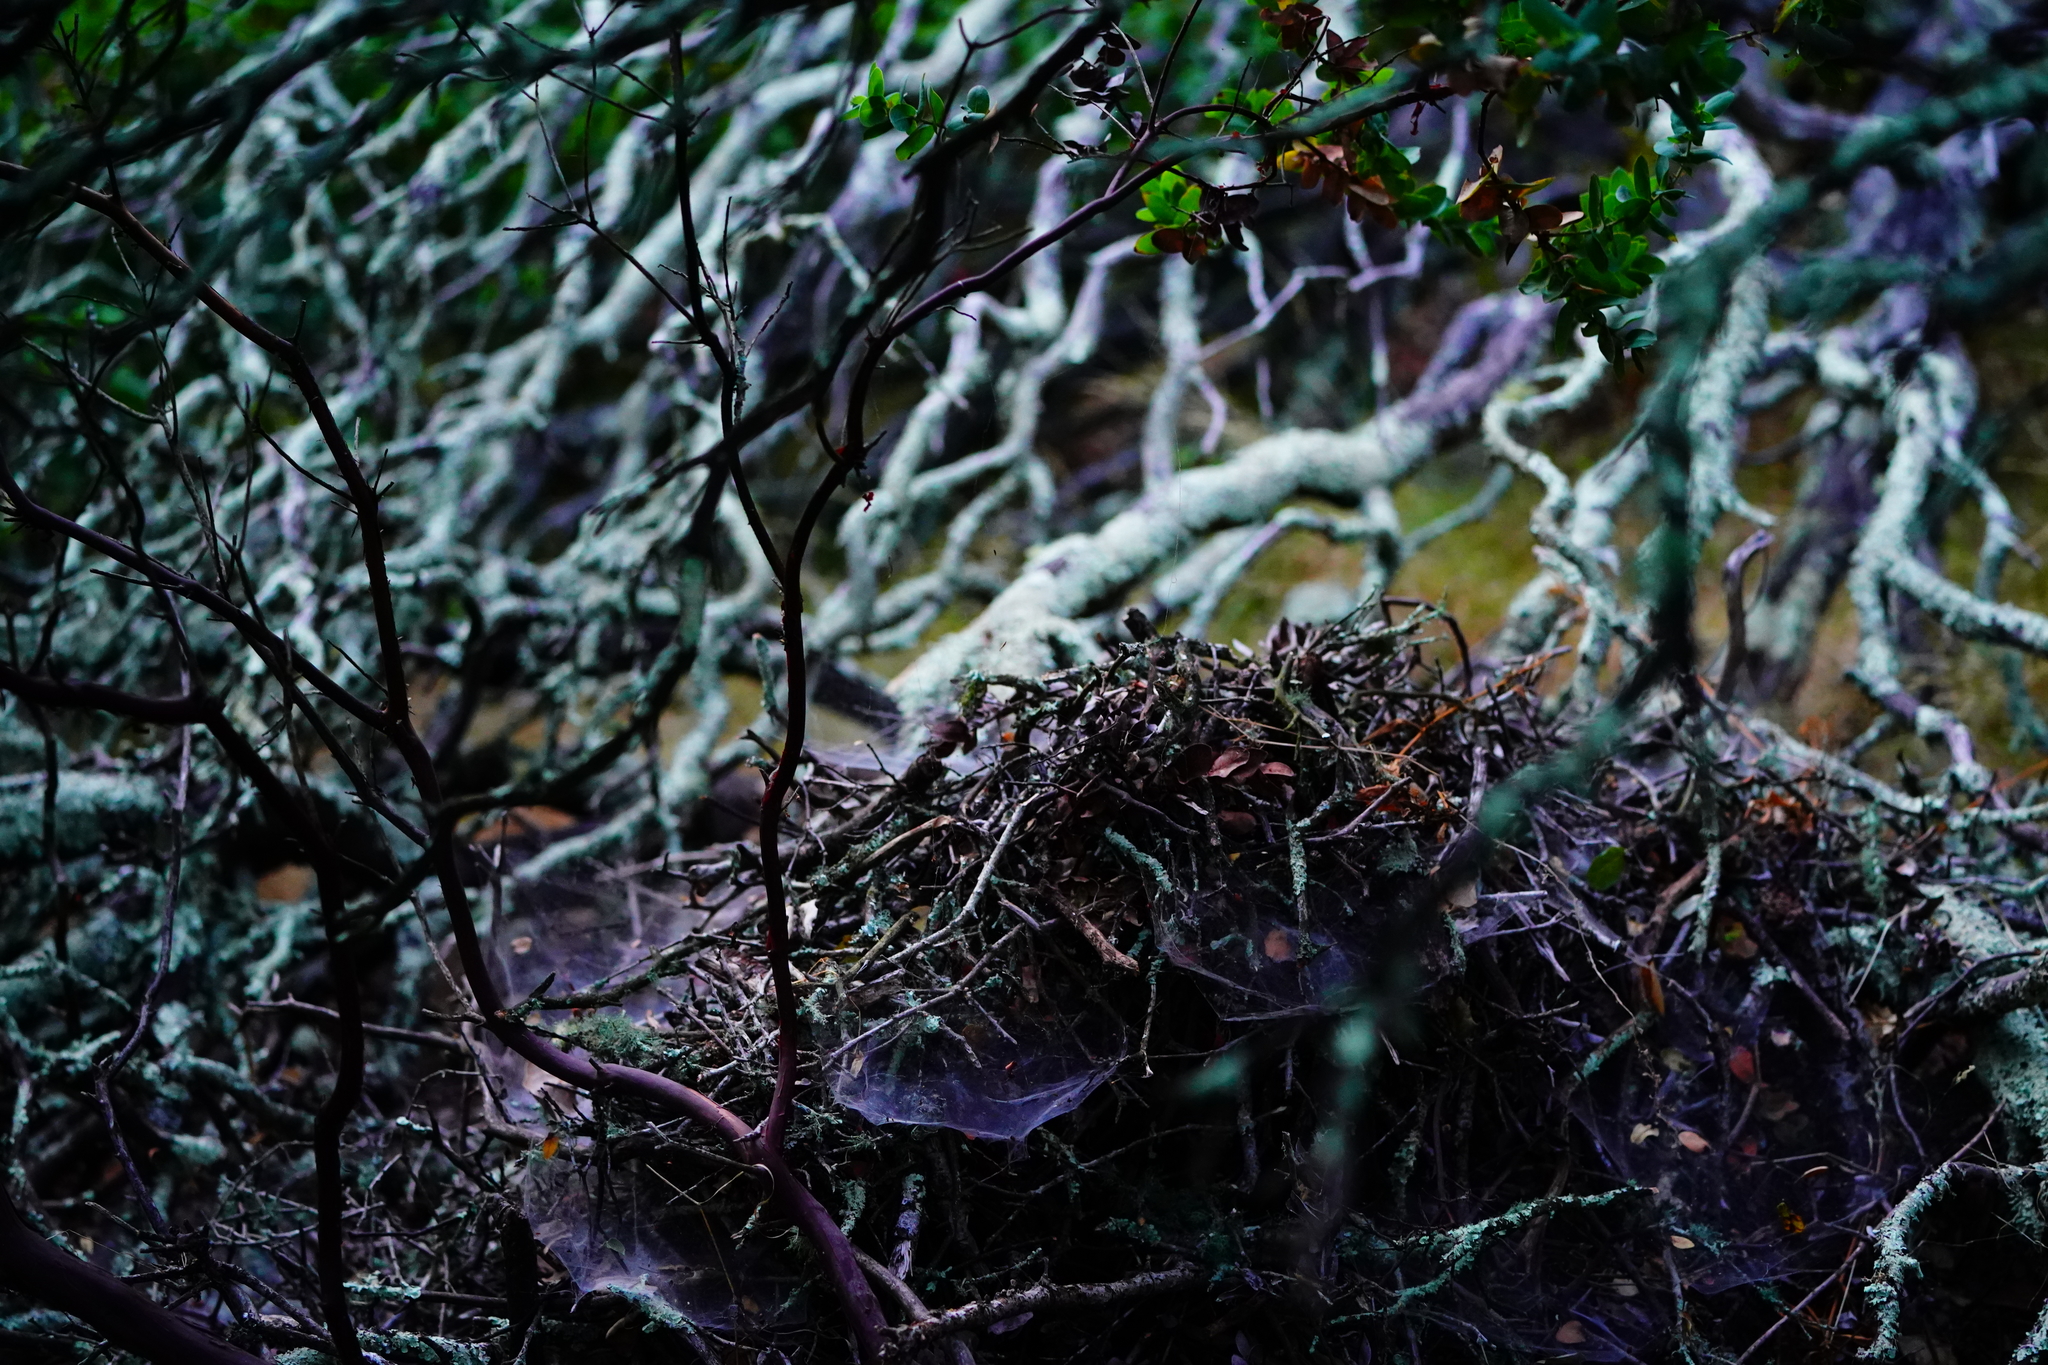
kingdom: Animalia
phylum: Chordata
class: Mammalia
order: Rodentia
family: Cricetidae
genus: Neotoma
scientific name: Neotoma fuscipes
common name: Dusky-footed woodrat
